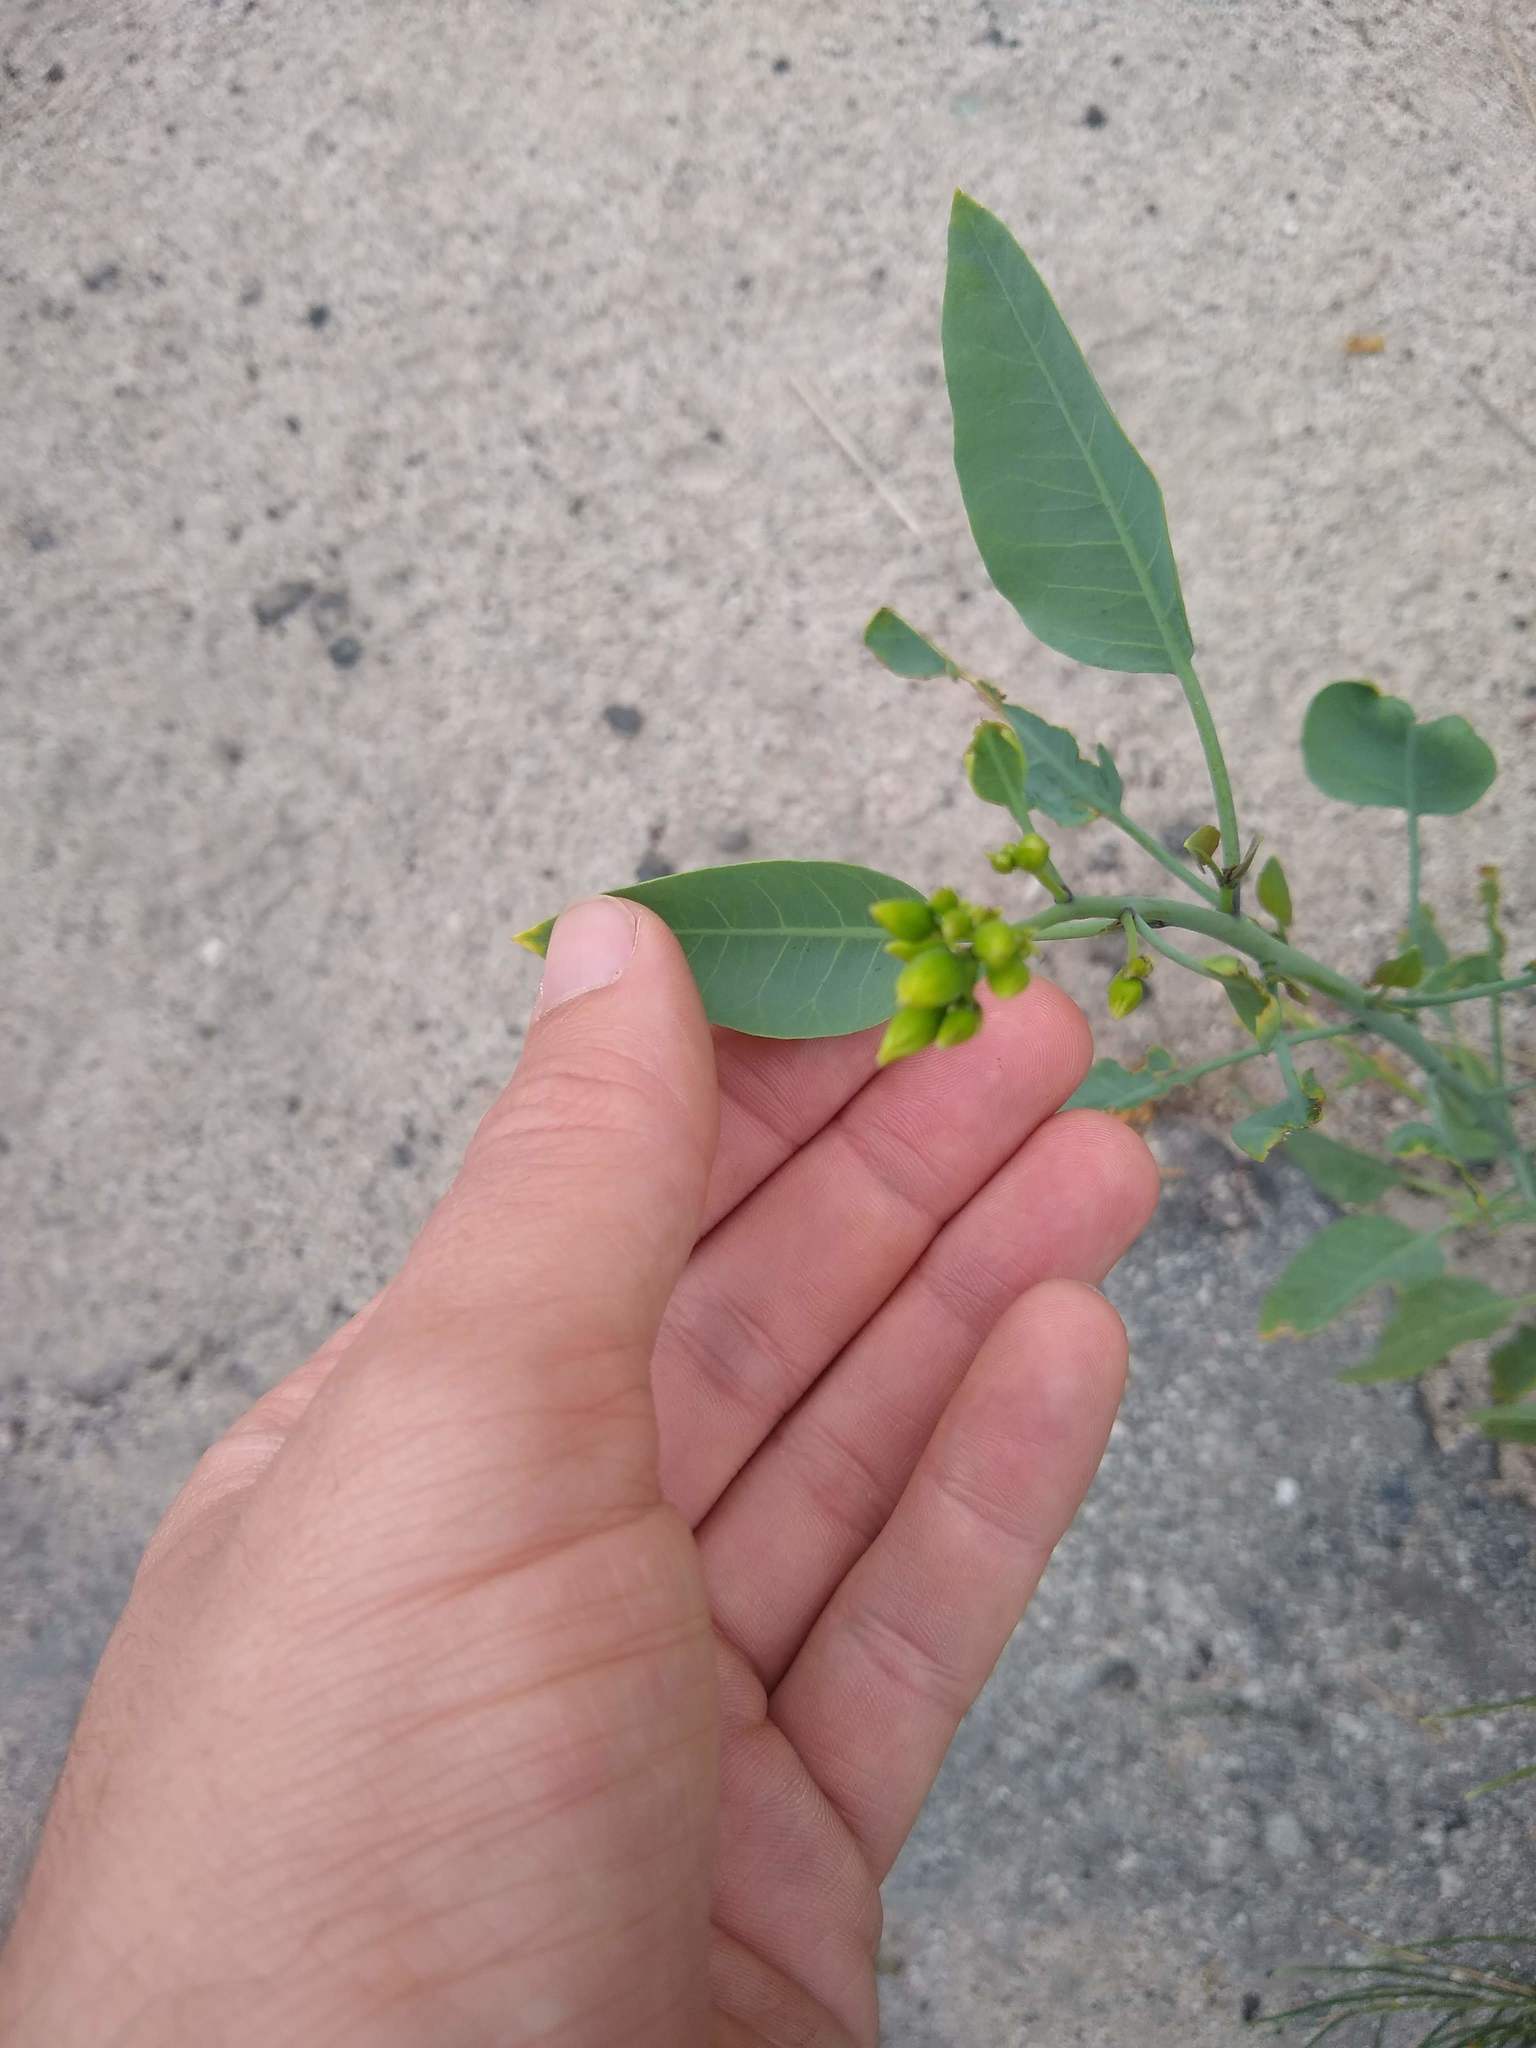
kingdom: Plantae
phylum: Tracheophyta
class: Magnoliopsida
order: Solanales
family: Solanaceae
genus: Nicotiana
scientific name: Nicotiana glauca
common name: Tree tobacco
